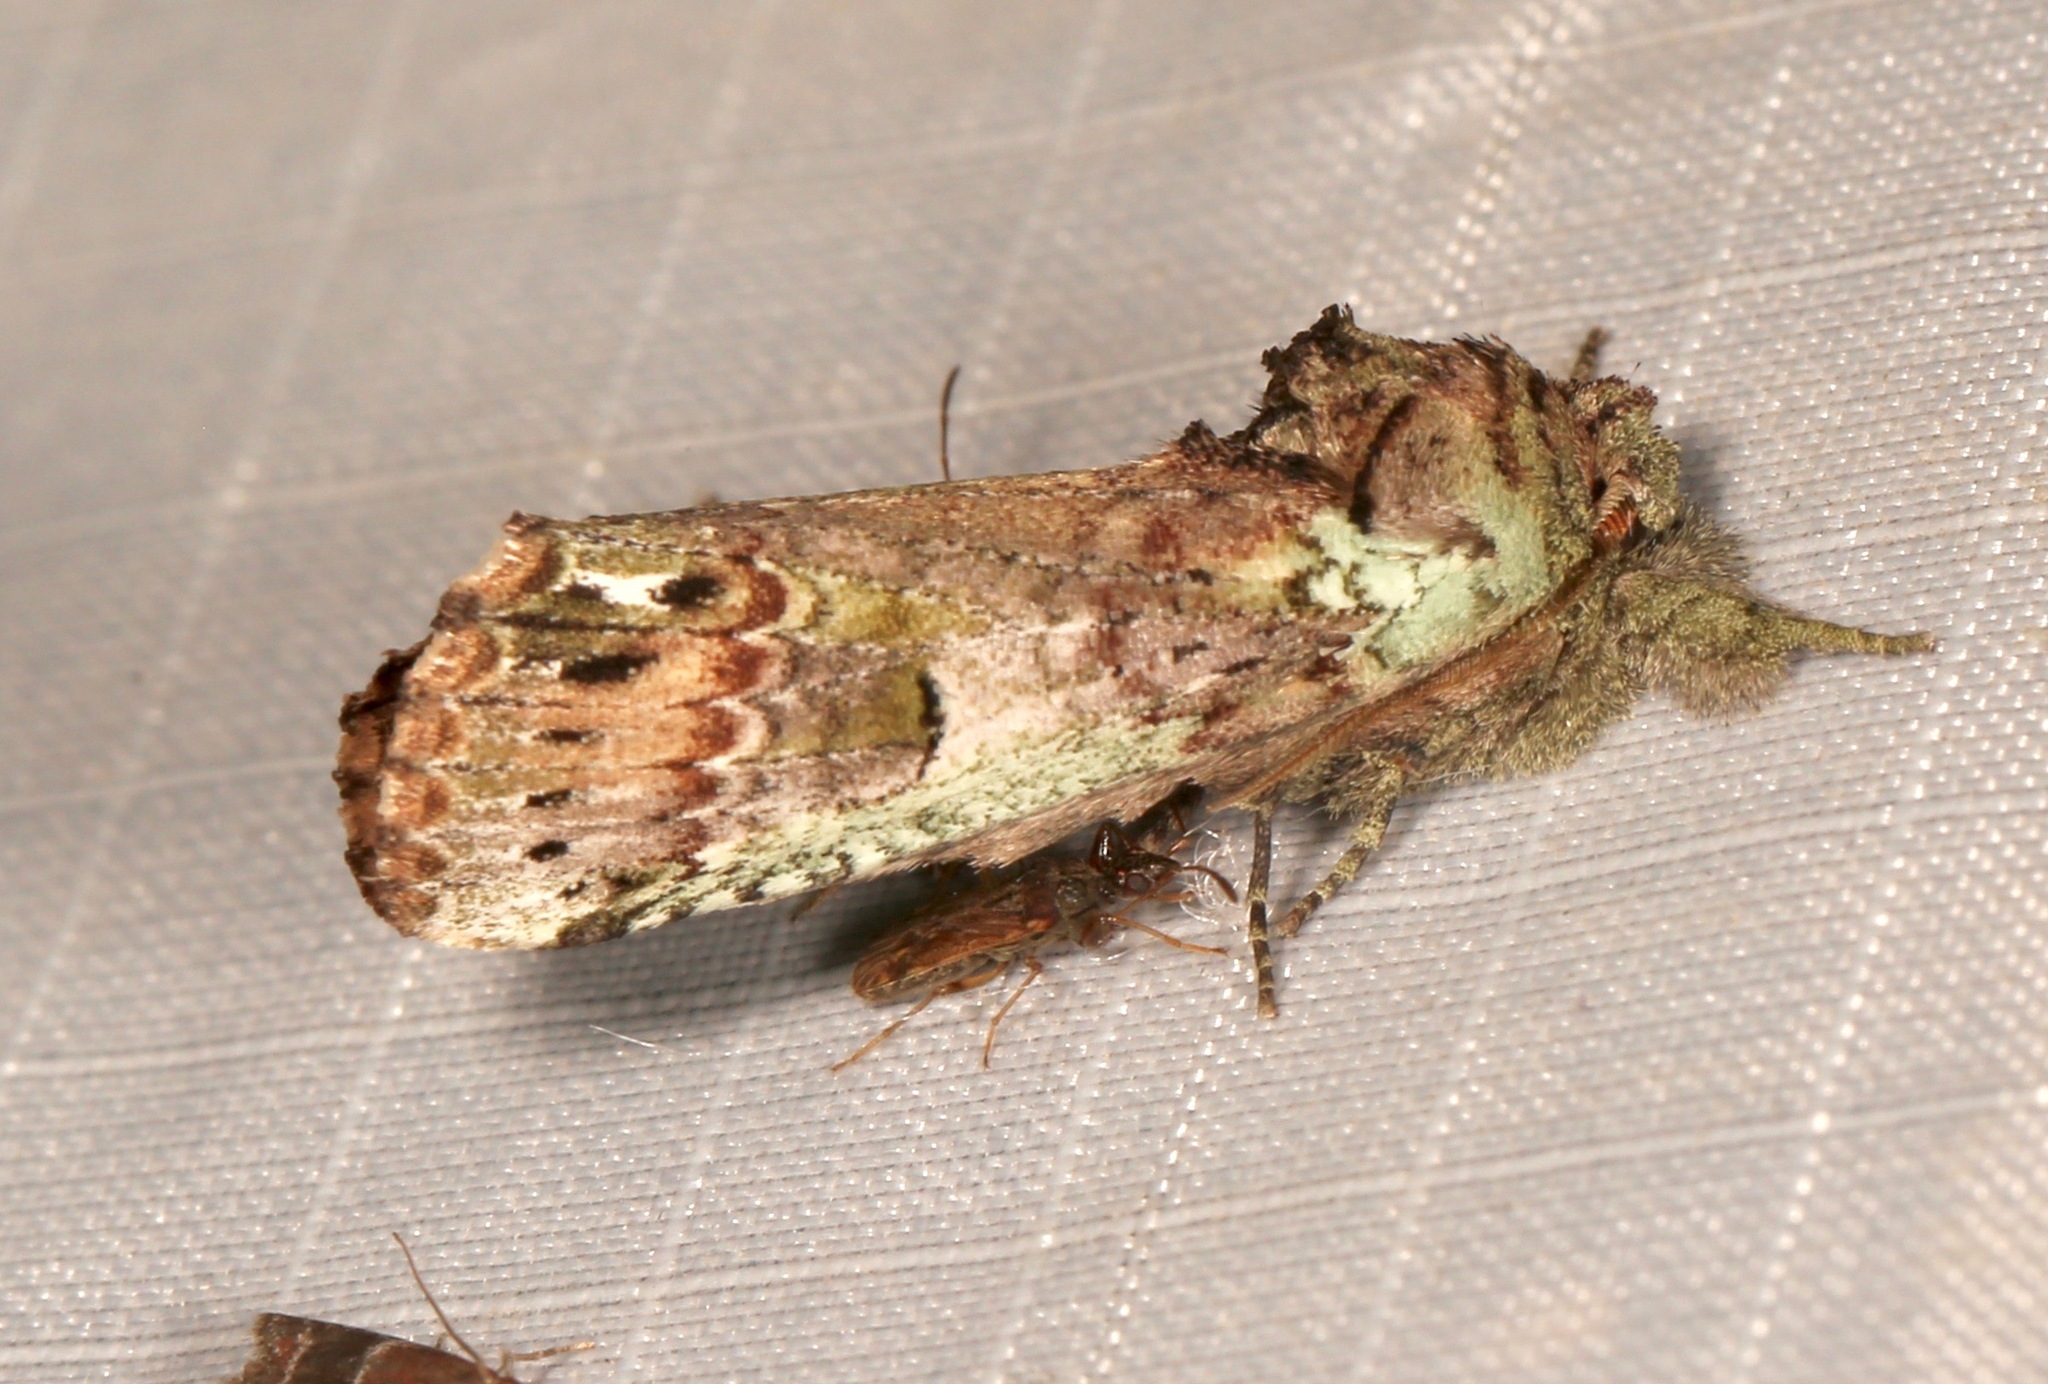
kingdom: Animalia
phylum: Arthropoda
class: Insecta
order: Lepidoptera
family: Notodontidae
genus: Schizura
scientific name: Schizura
